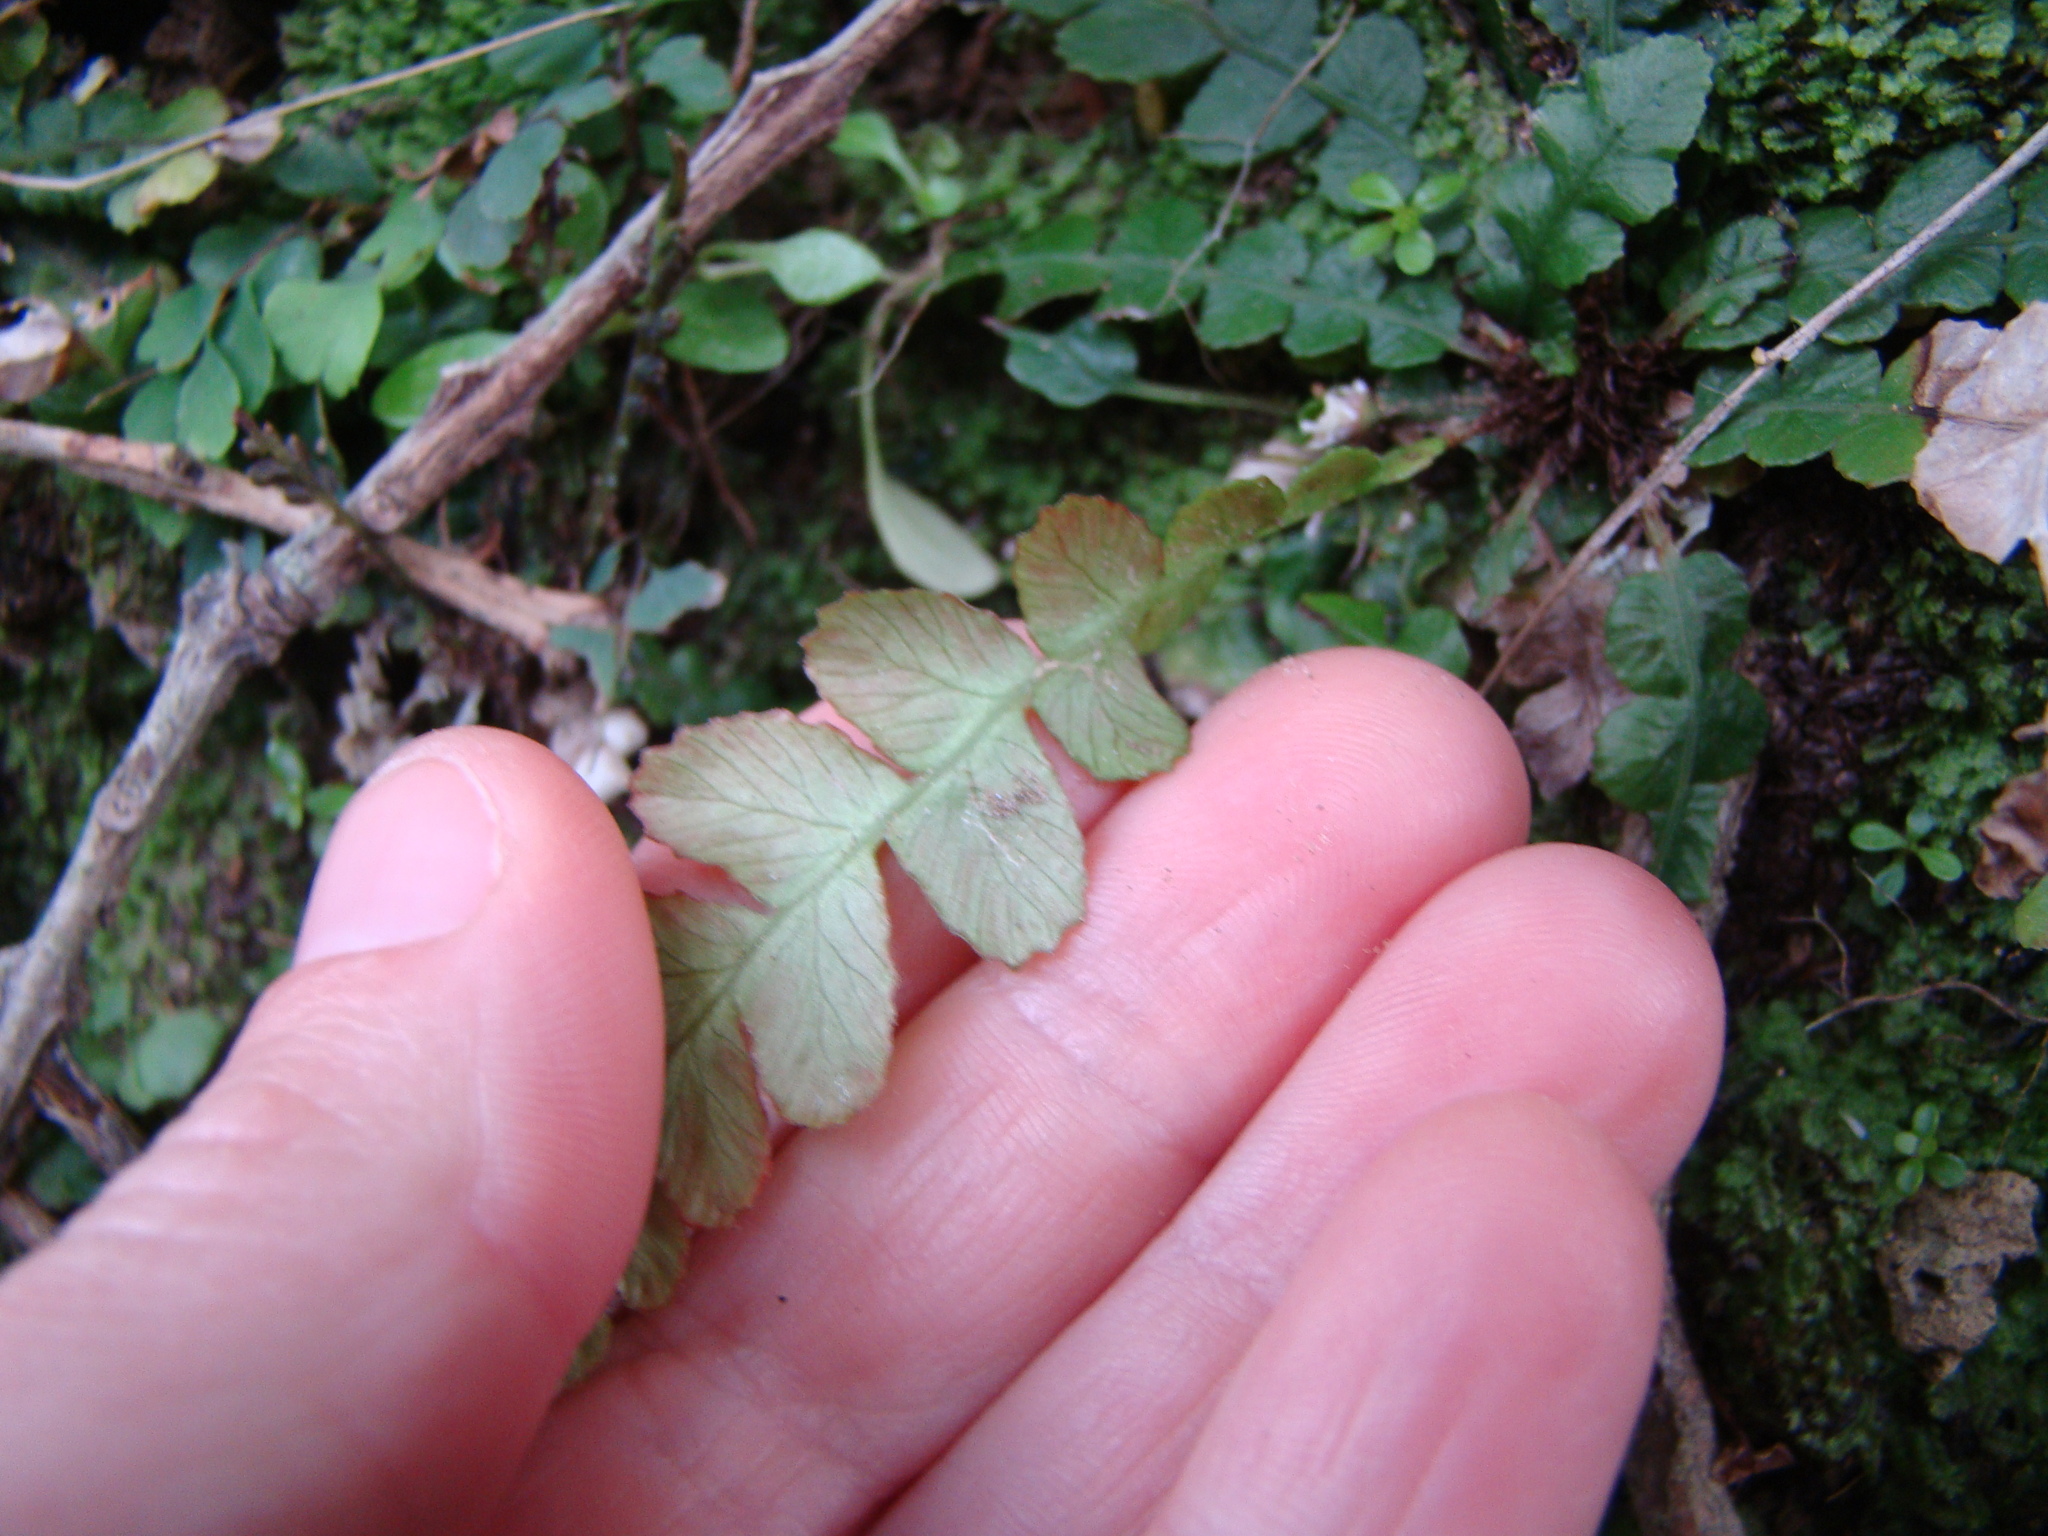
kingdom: Plantae
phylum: Tracheophyta
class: Polypodiopsida
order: Polypodiales
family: Blechnaceae
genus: Austroblechnum
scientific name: Austroblechnum membranaceum
